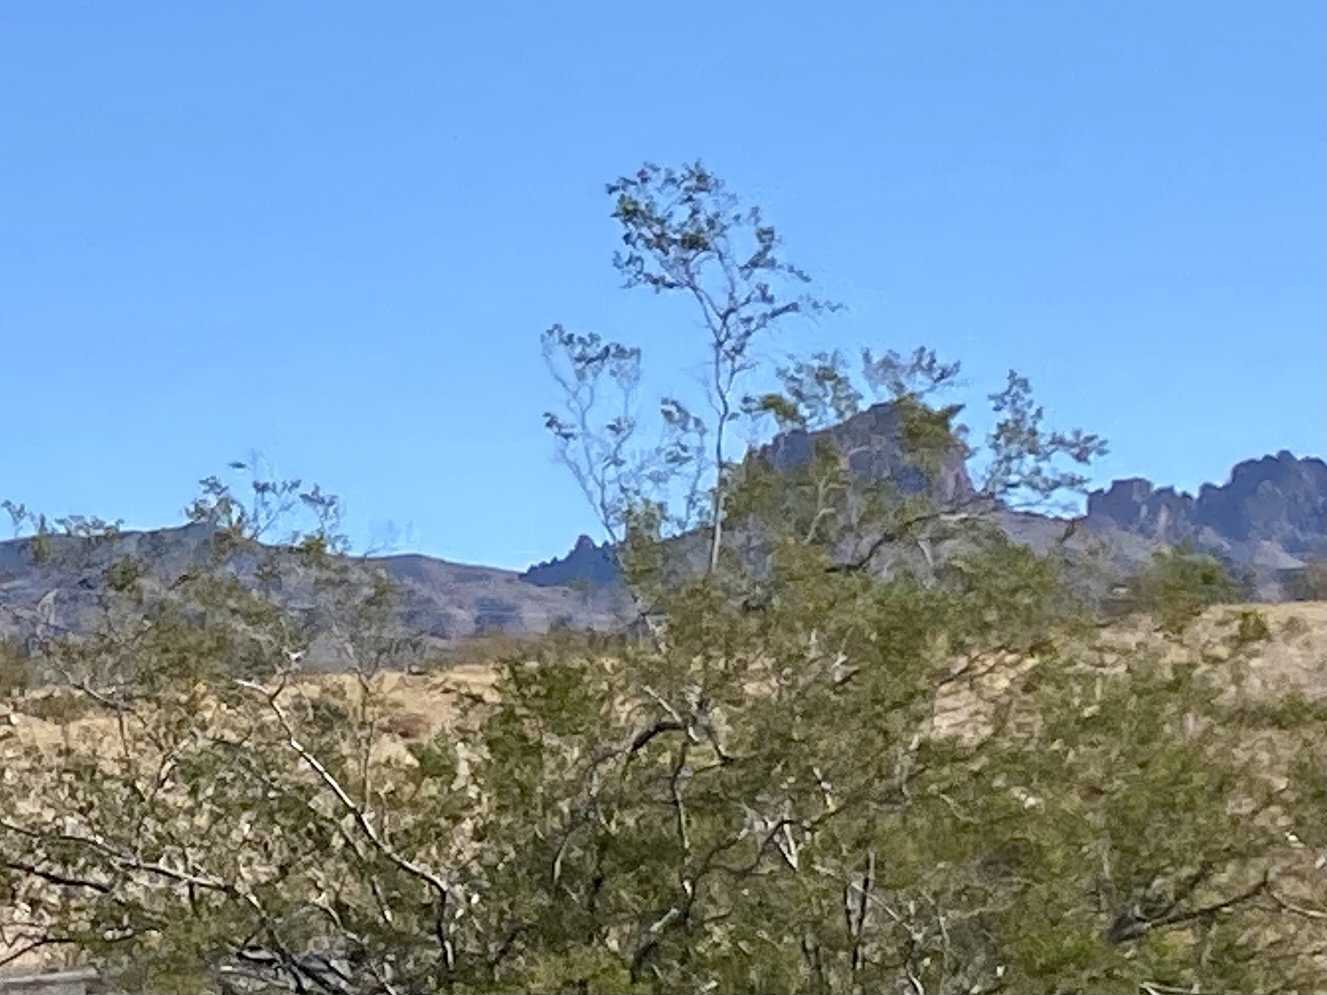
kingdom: Plantae
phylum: Tracheophyta
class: Magnoliopsida
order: Zygophyllales
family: Zygophyllaceae
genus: Larrea
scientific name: Larrea tridentata
